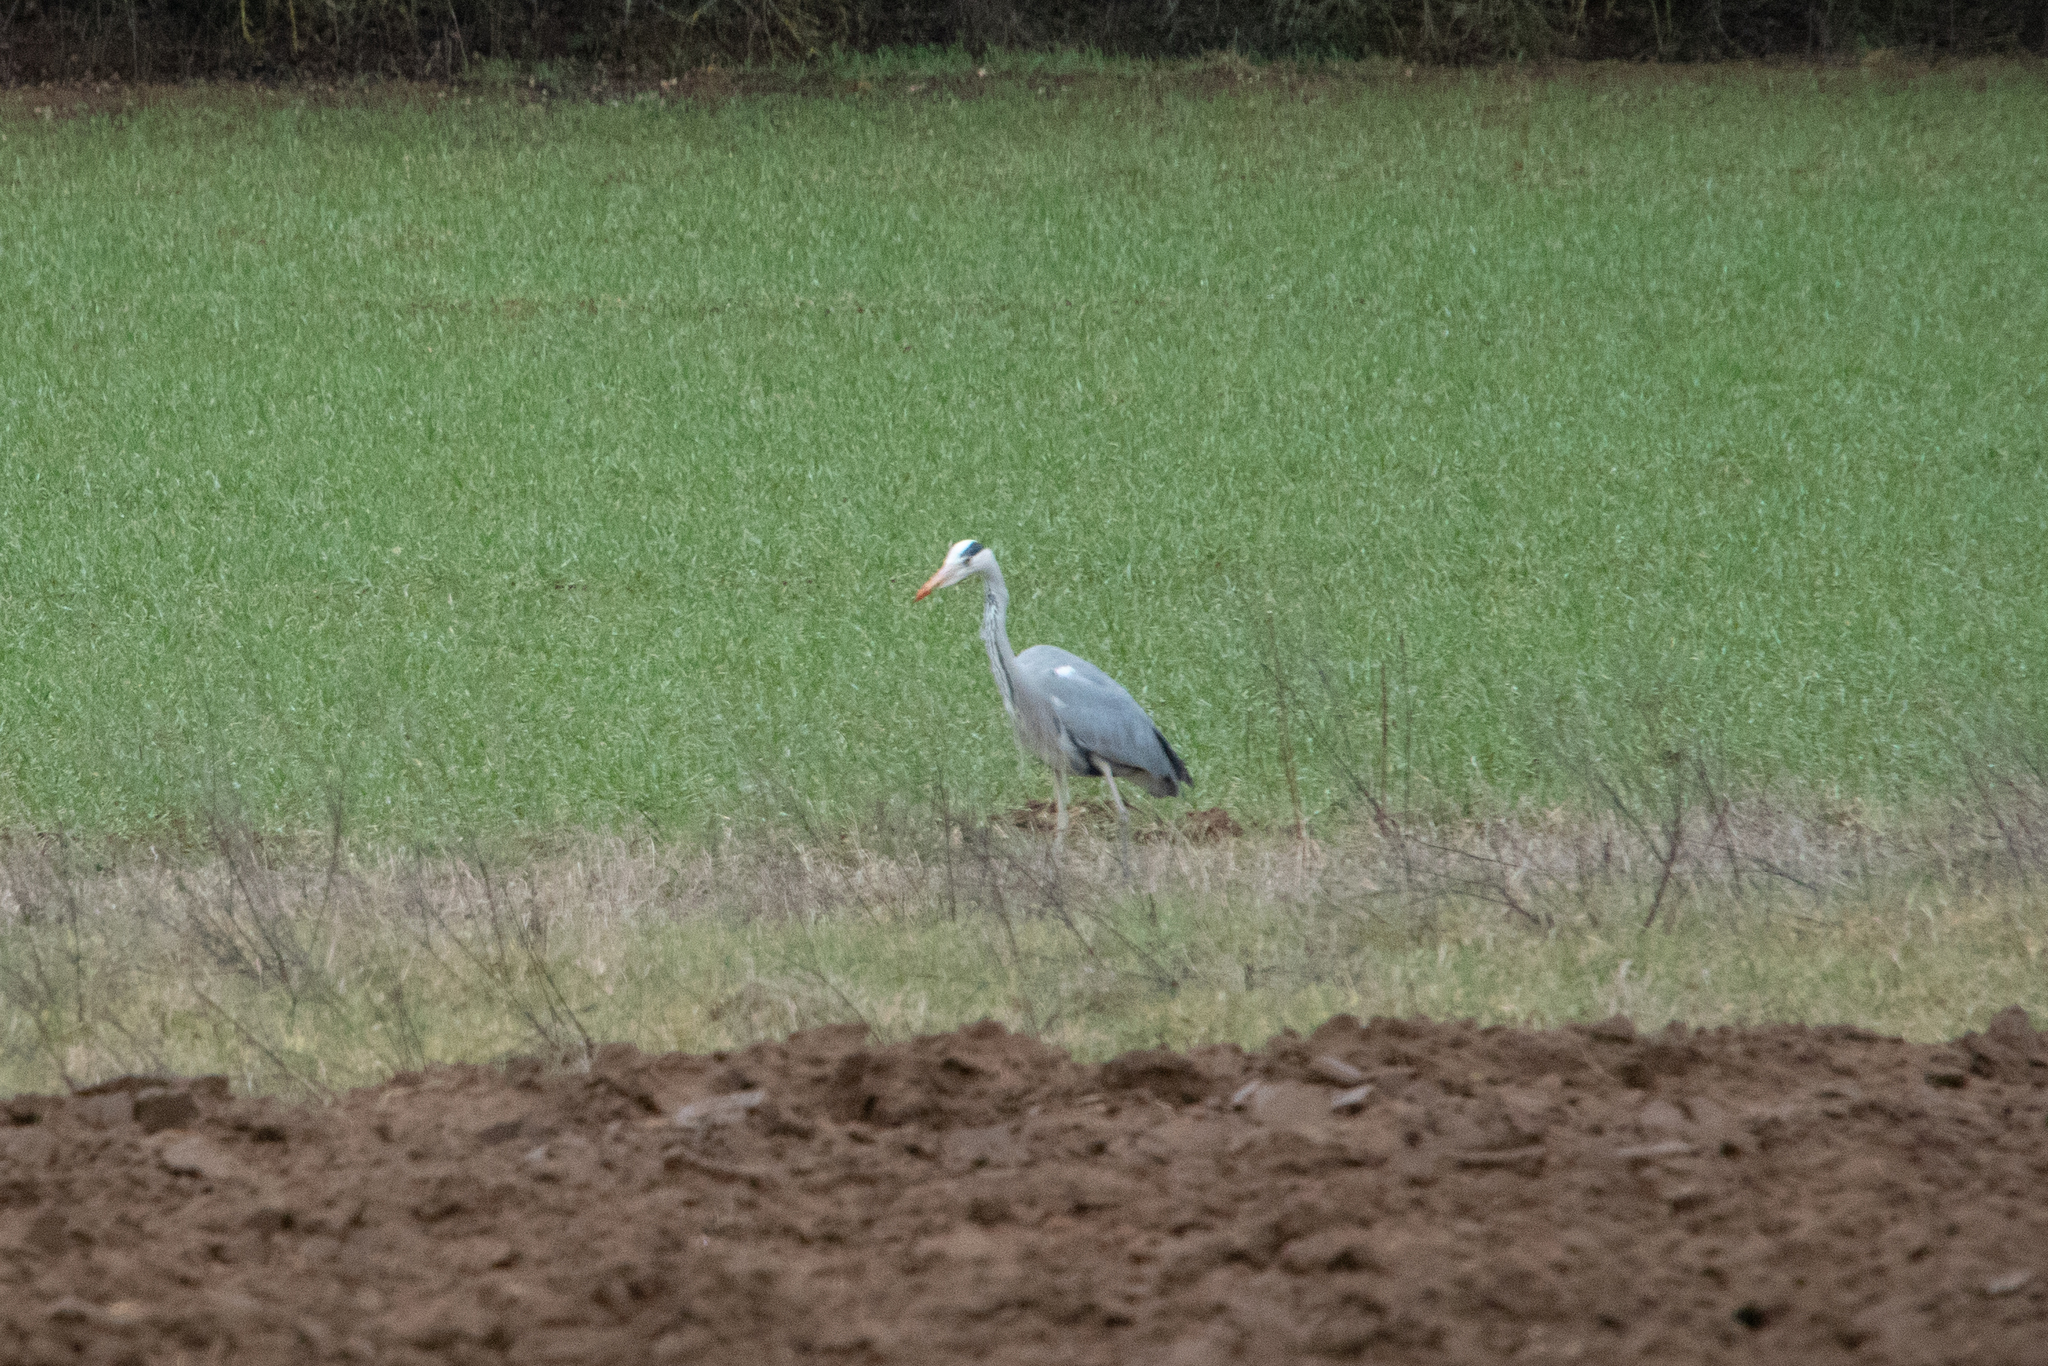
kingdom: Animalia
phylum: Chordata
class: Aves
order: Pelecaniformes
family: Ardeidae
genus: Ardea
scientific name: Ardea cinerea
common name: Grey heron
